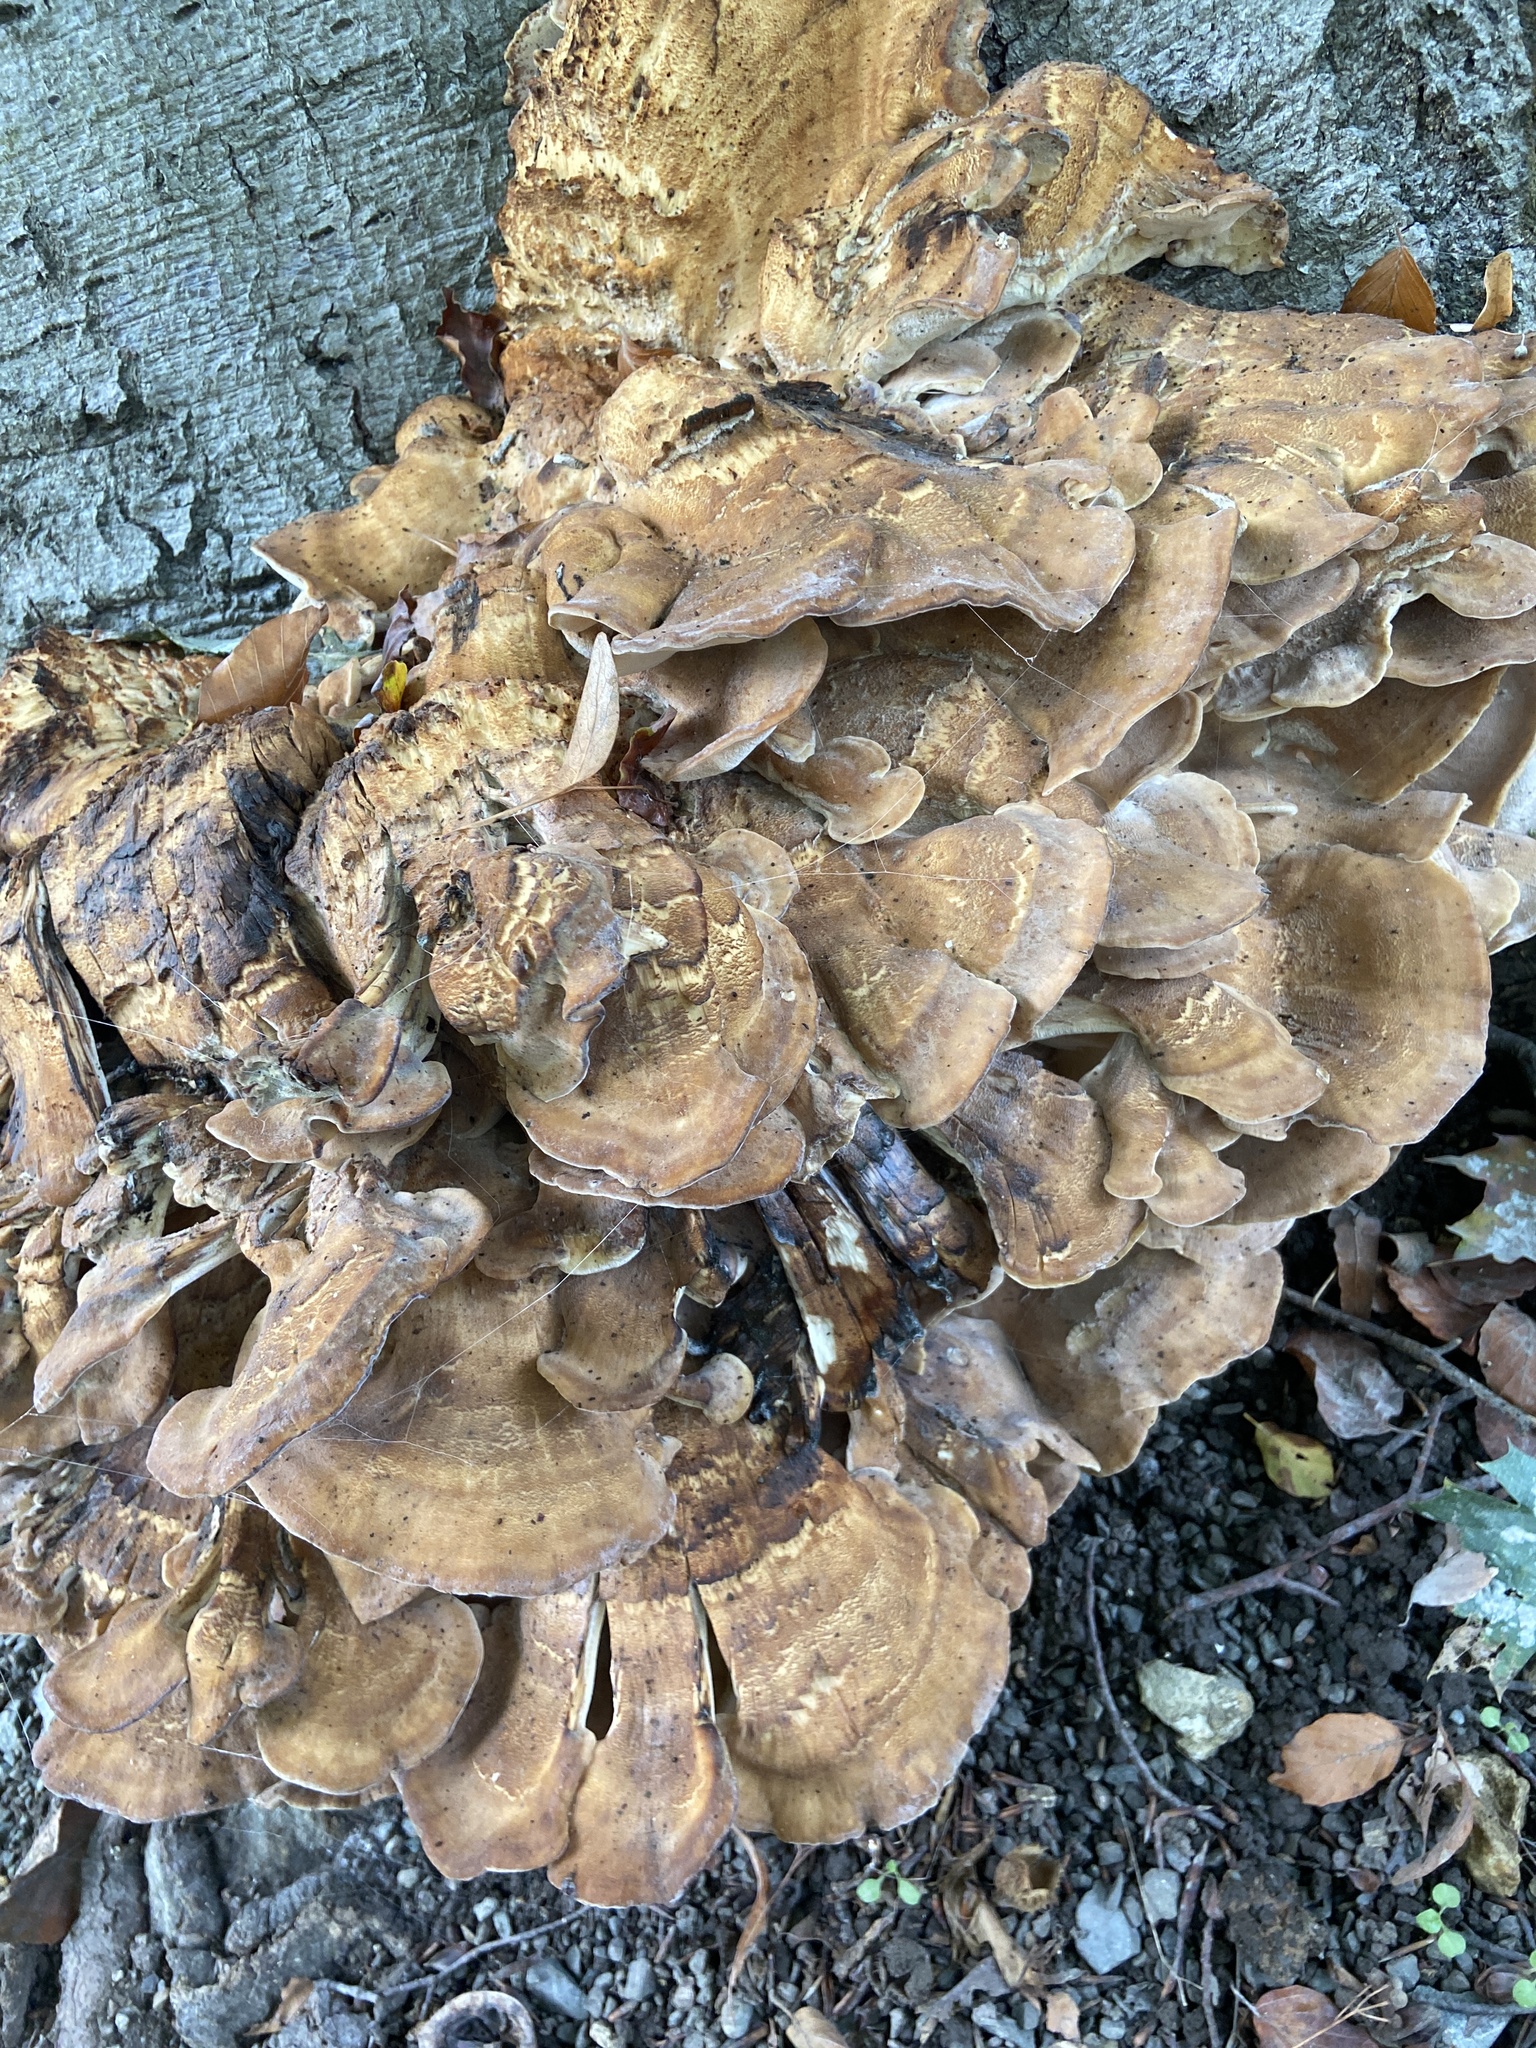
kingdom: Fungi
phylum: Basidiomycota
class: Agaricomycetes
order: Polyporales
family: Meripilaceae
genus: Meripilus
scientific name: Meripilus giganteus
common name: Giant polypore
